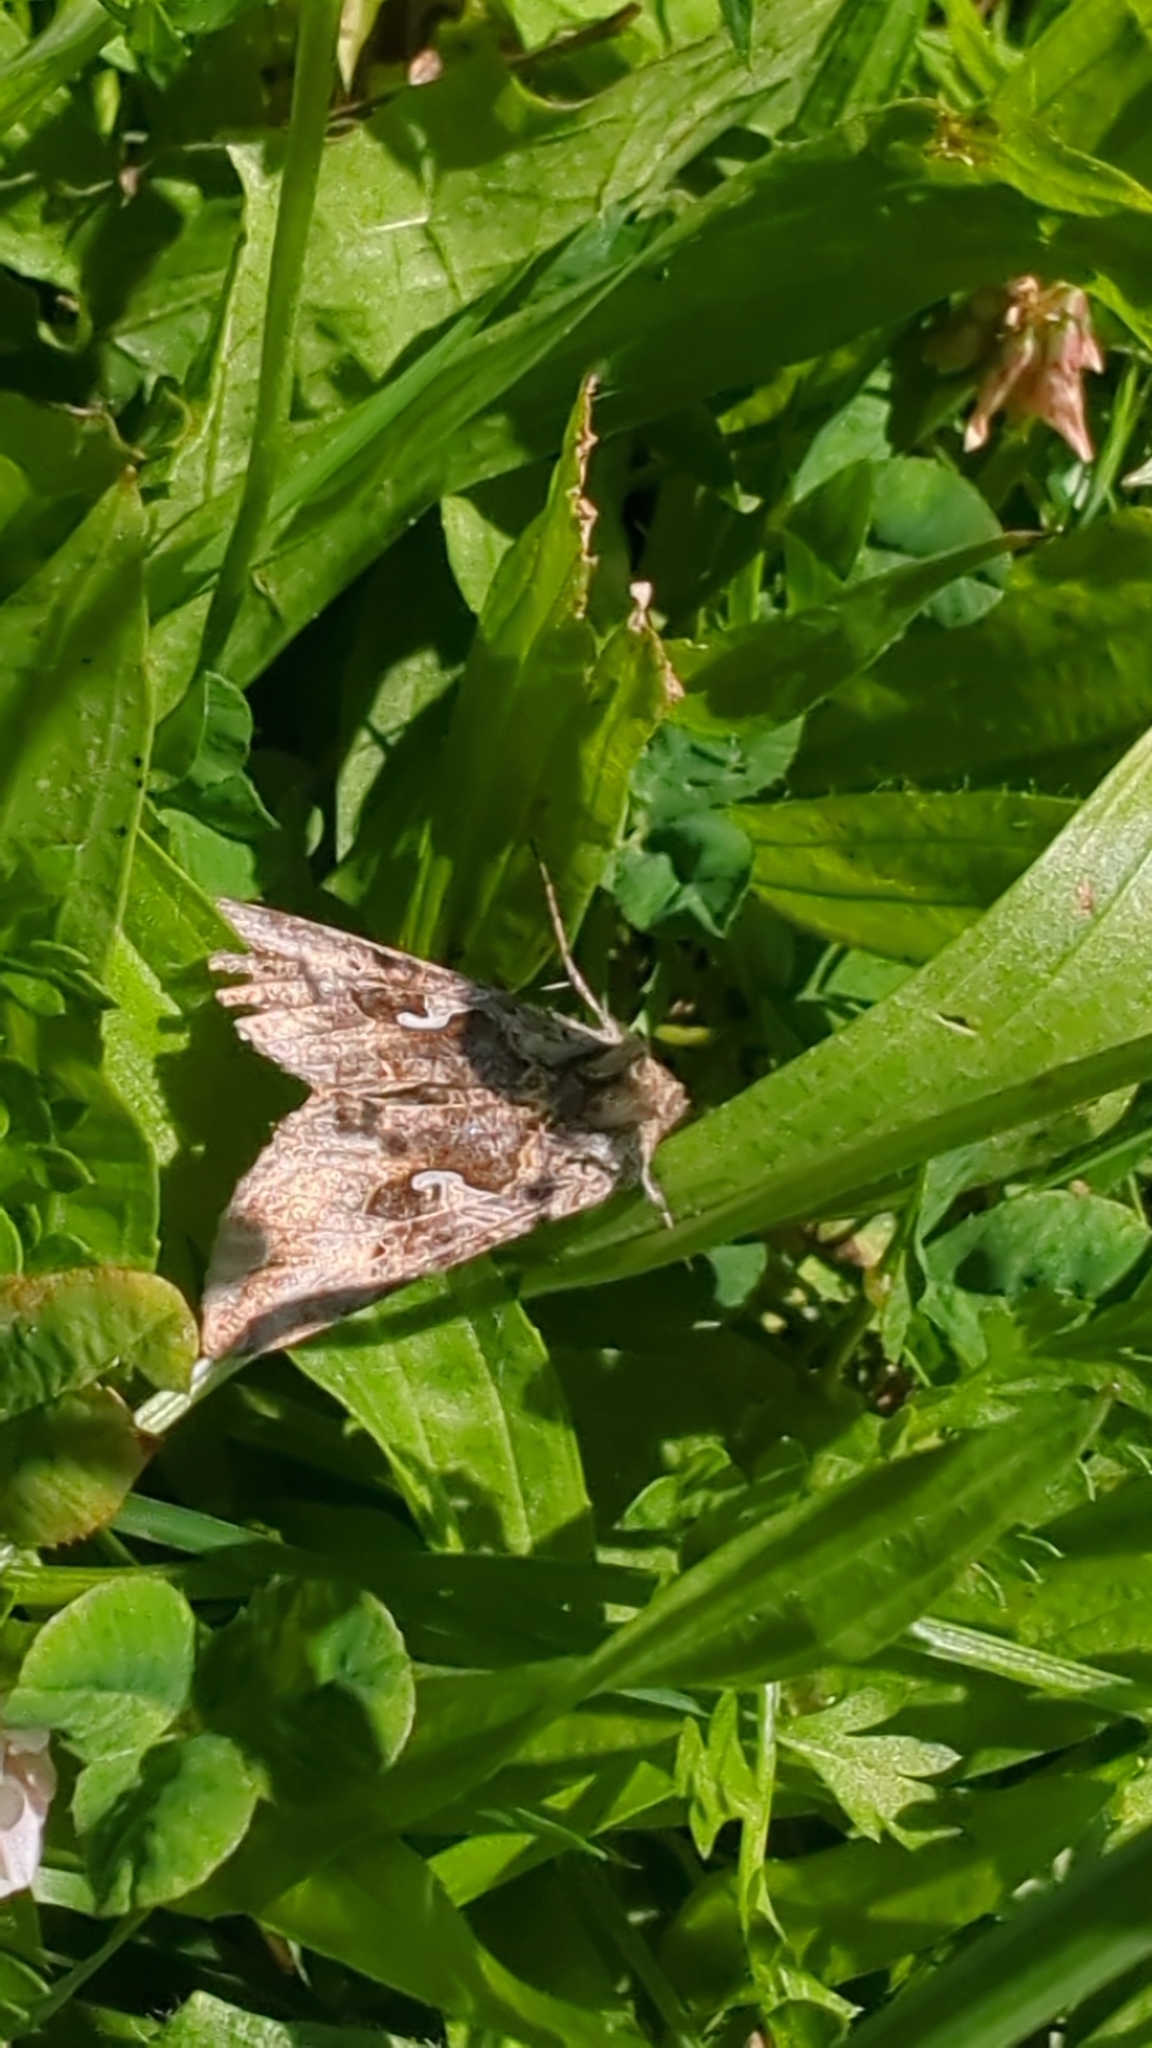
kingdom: Animalia
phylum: Arthropoda
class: Insecta
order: Lepidoptera
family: Noctuidae
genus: Autographa
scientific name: Autographa californica
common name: Alfalfa looper
